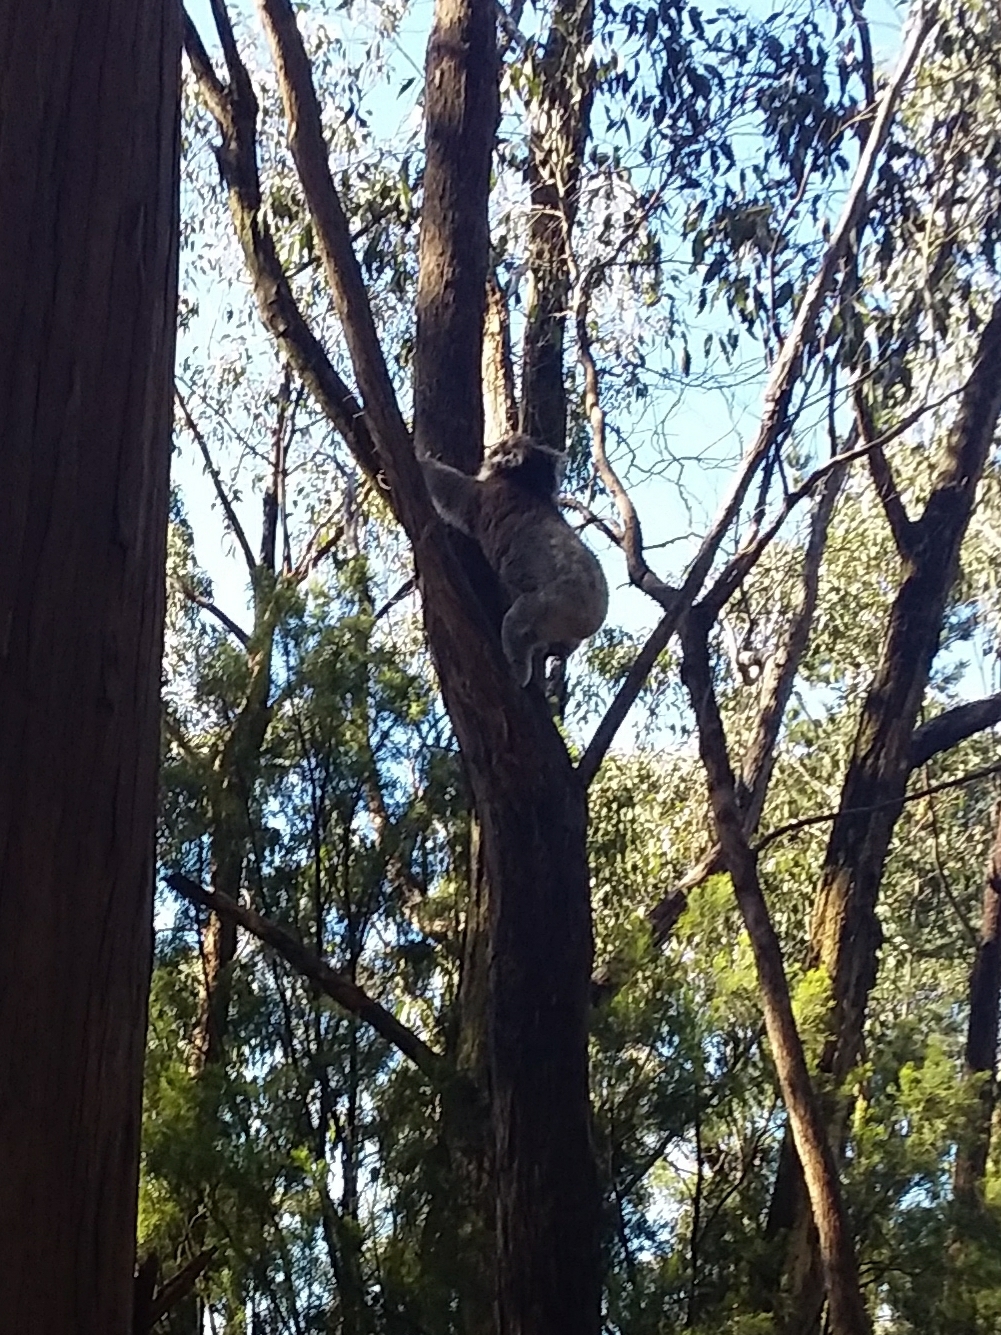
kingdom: Animalia
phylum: Chordata
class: Mammalia
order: Diprotodontia
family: Phascolarctidae
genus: Phascolarctos
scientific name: Phascolarctos cinereus
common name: Koala
